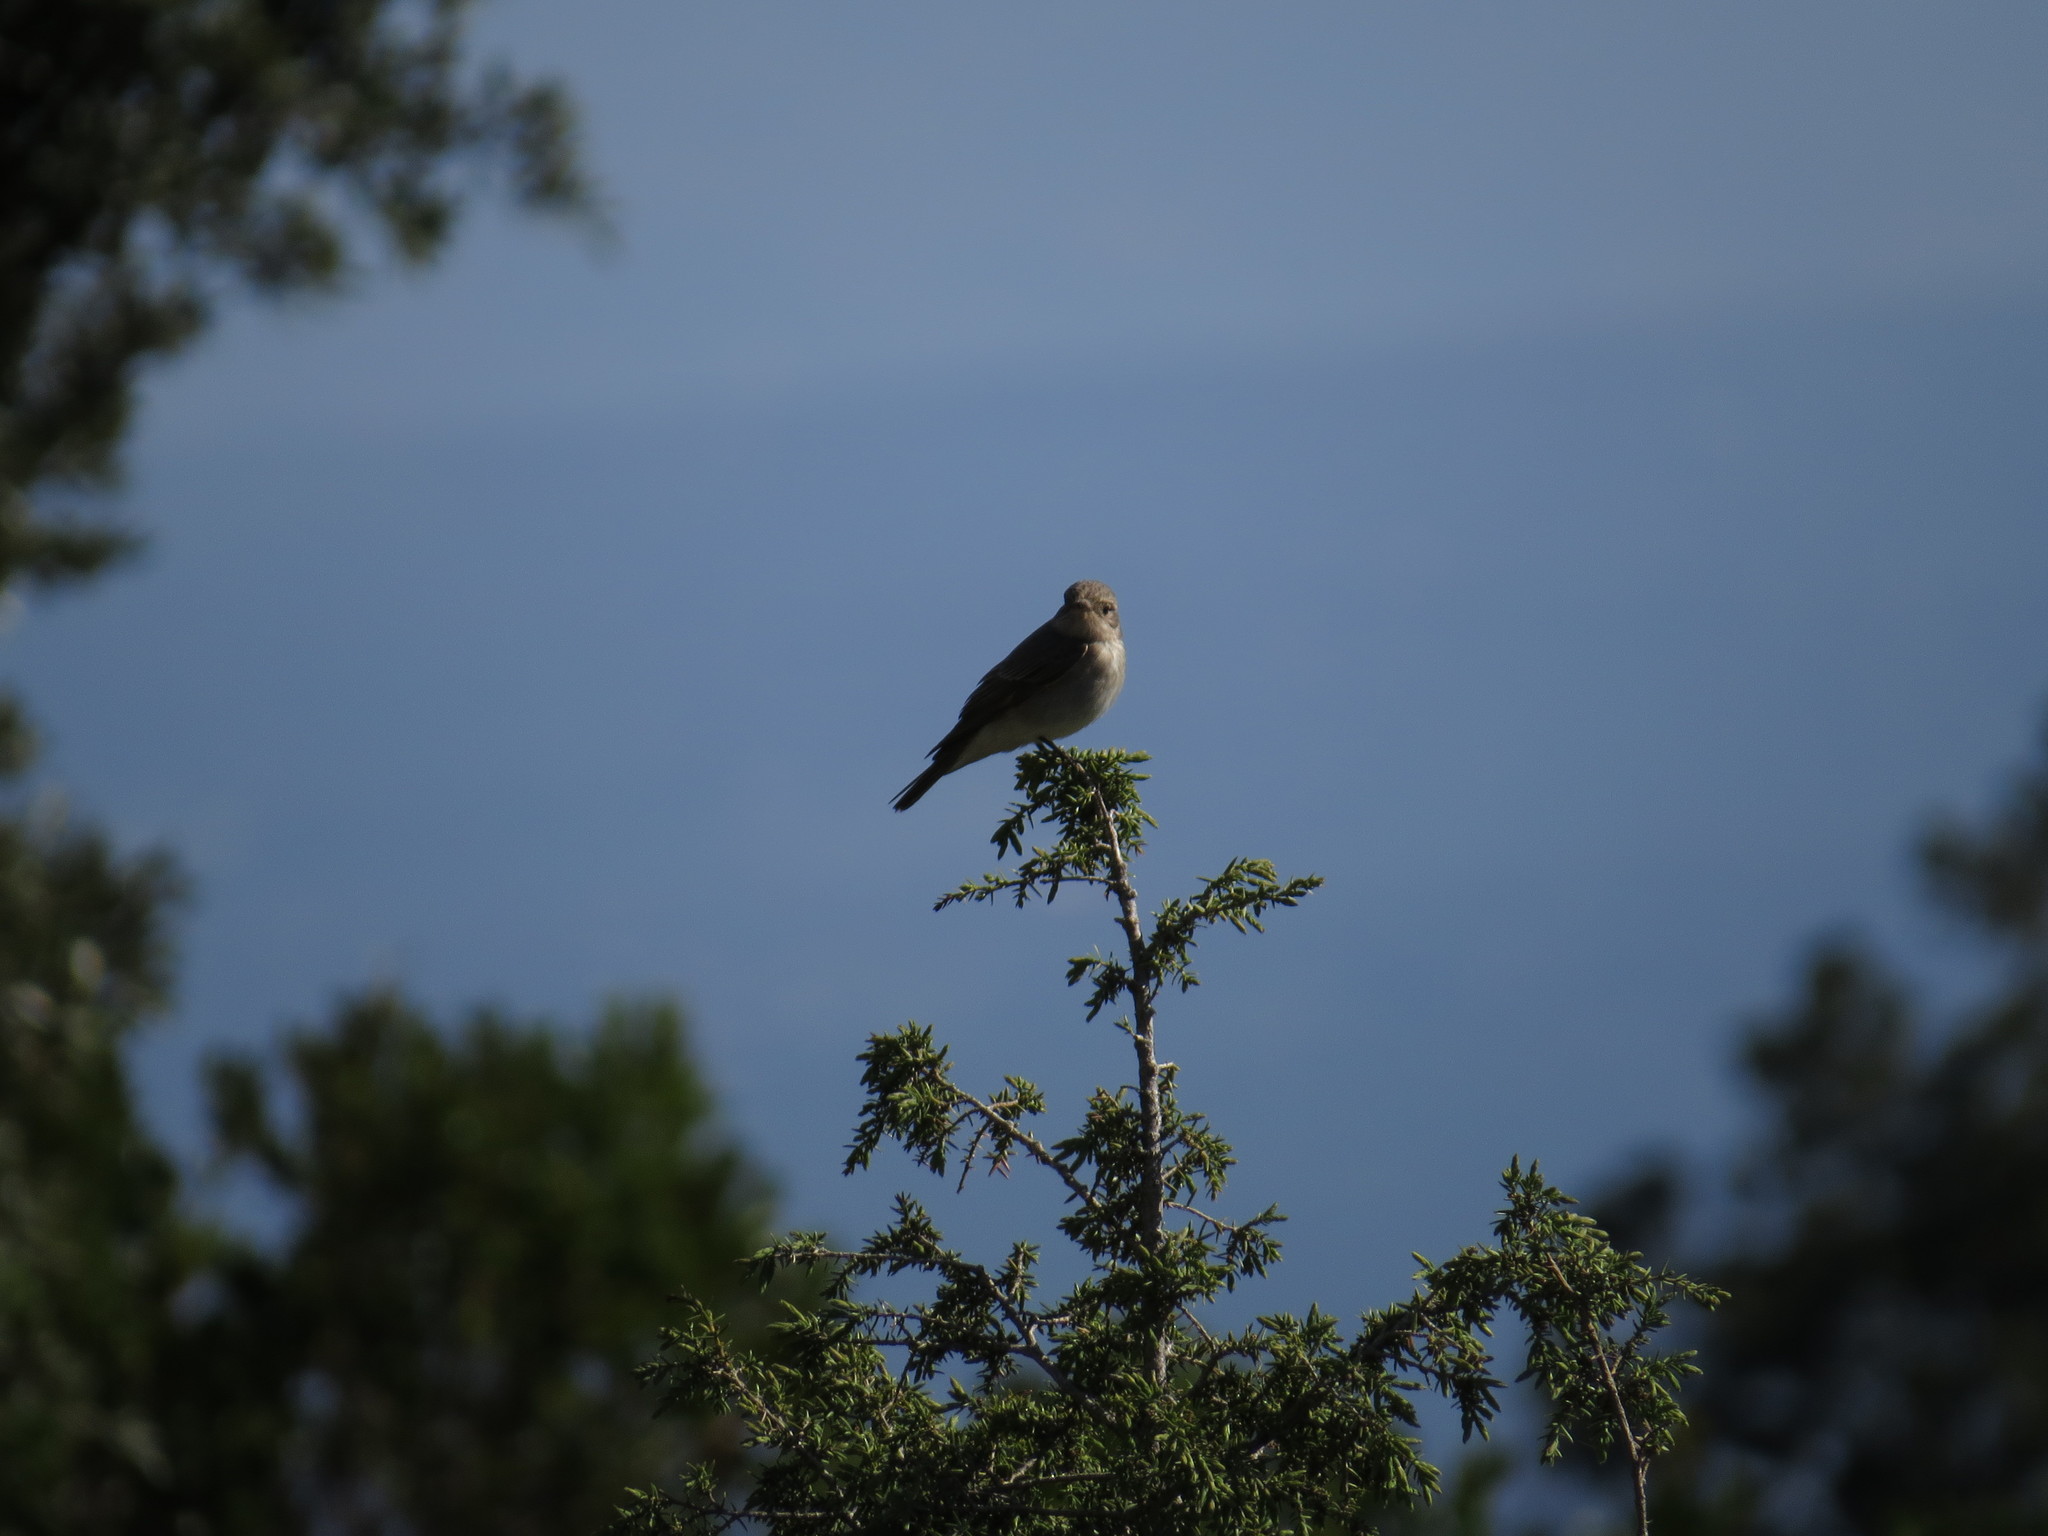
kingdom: Animalia
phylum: Chordata
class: Aves
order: Passeriformes
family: Muscicapidae
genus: Muscicapa
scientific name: Muscicapa striata
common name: Spotted flycatcher
